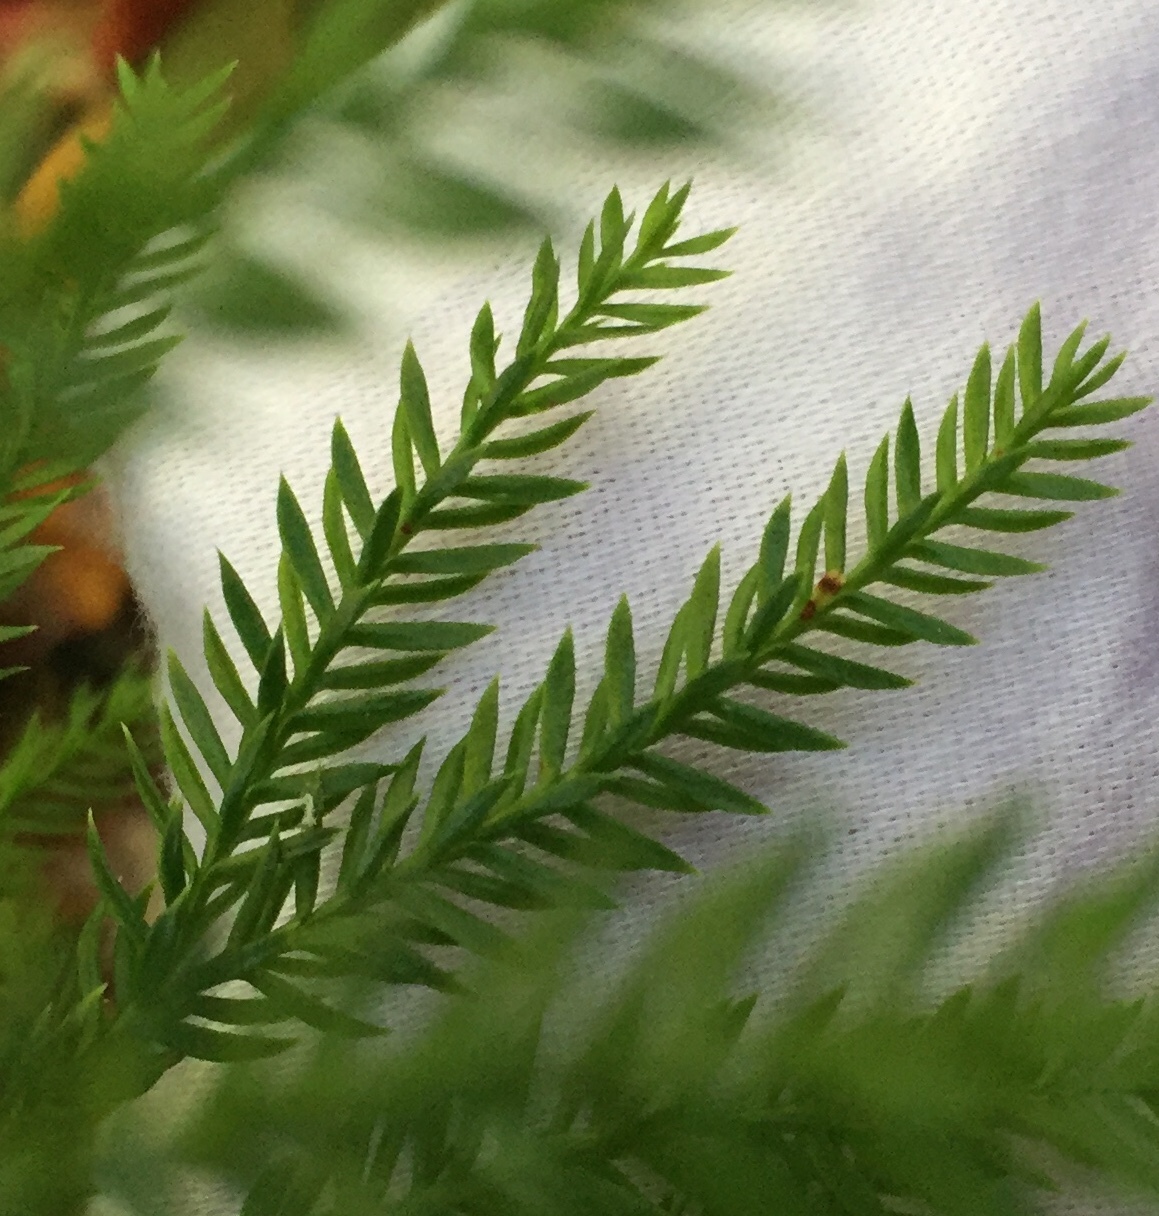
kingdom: Plantae
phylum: Tracheophyta
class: Lycopodiopsida
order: Lycopodiales
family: Lycopodiaceae
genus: Dendrolycopodium
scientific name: Dendrolycopodium obscurum
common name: Common ground-pine
